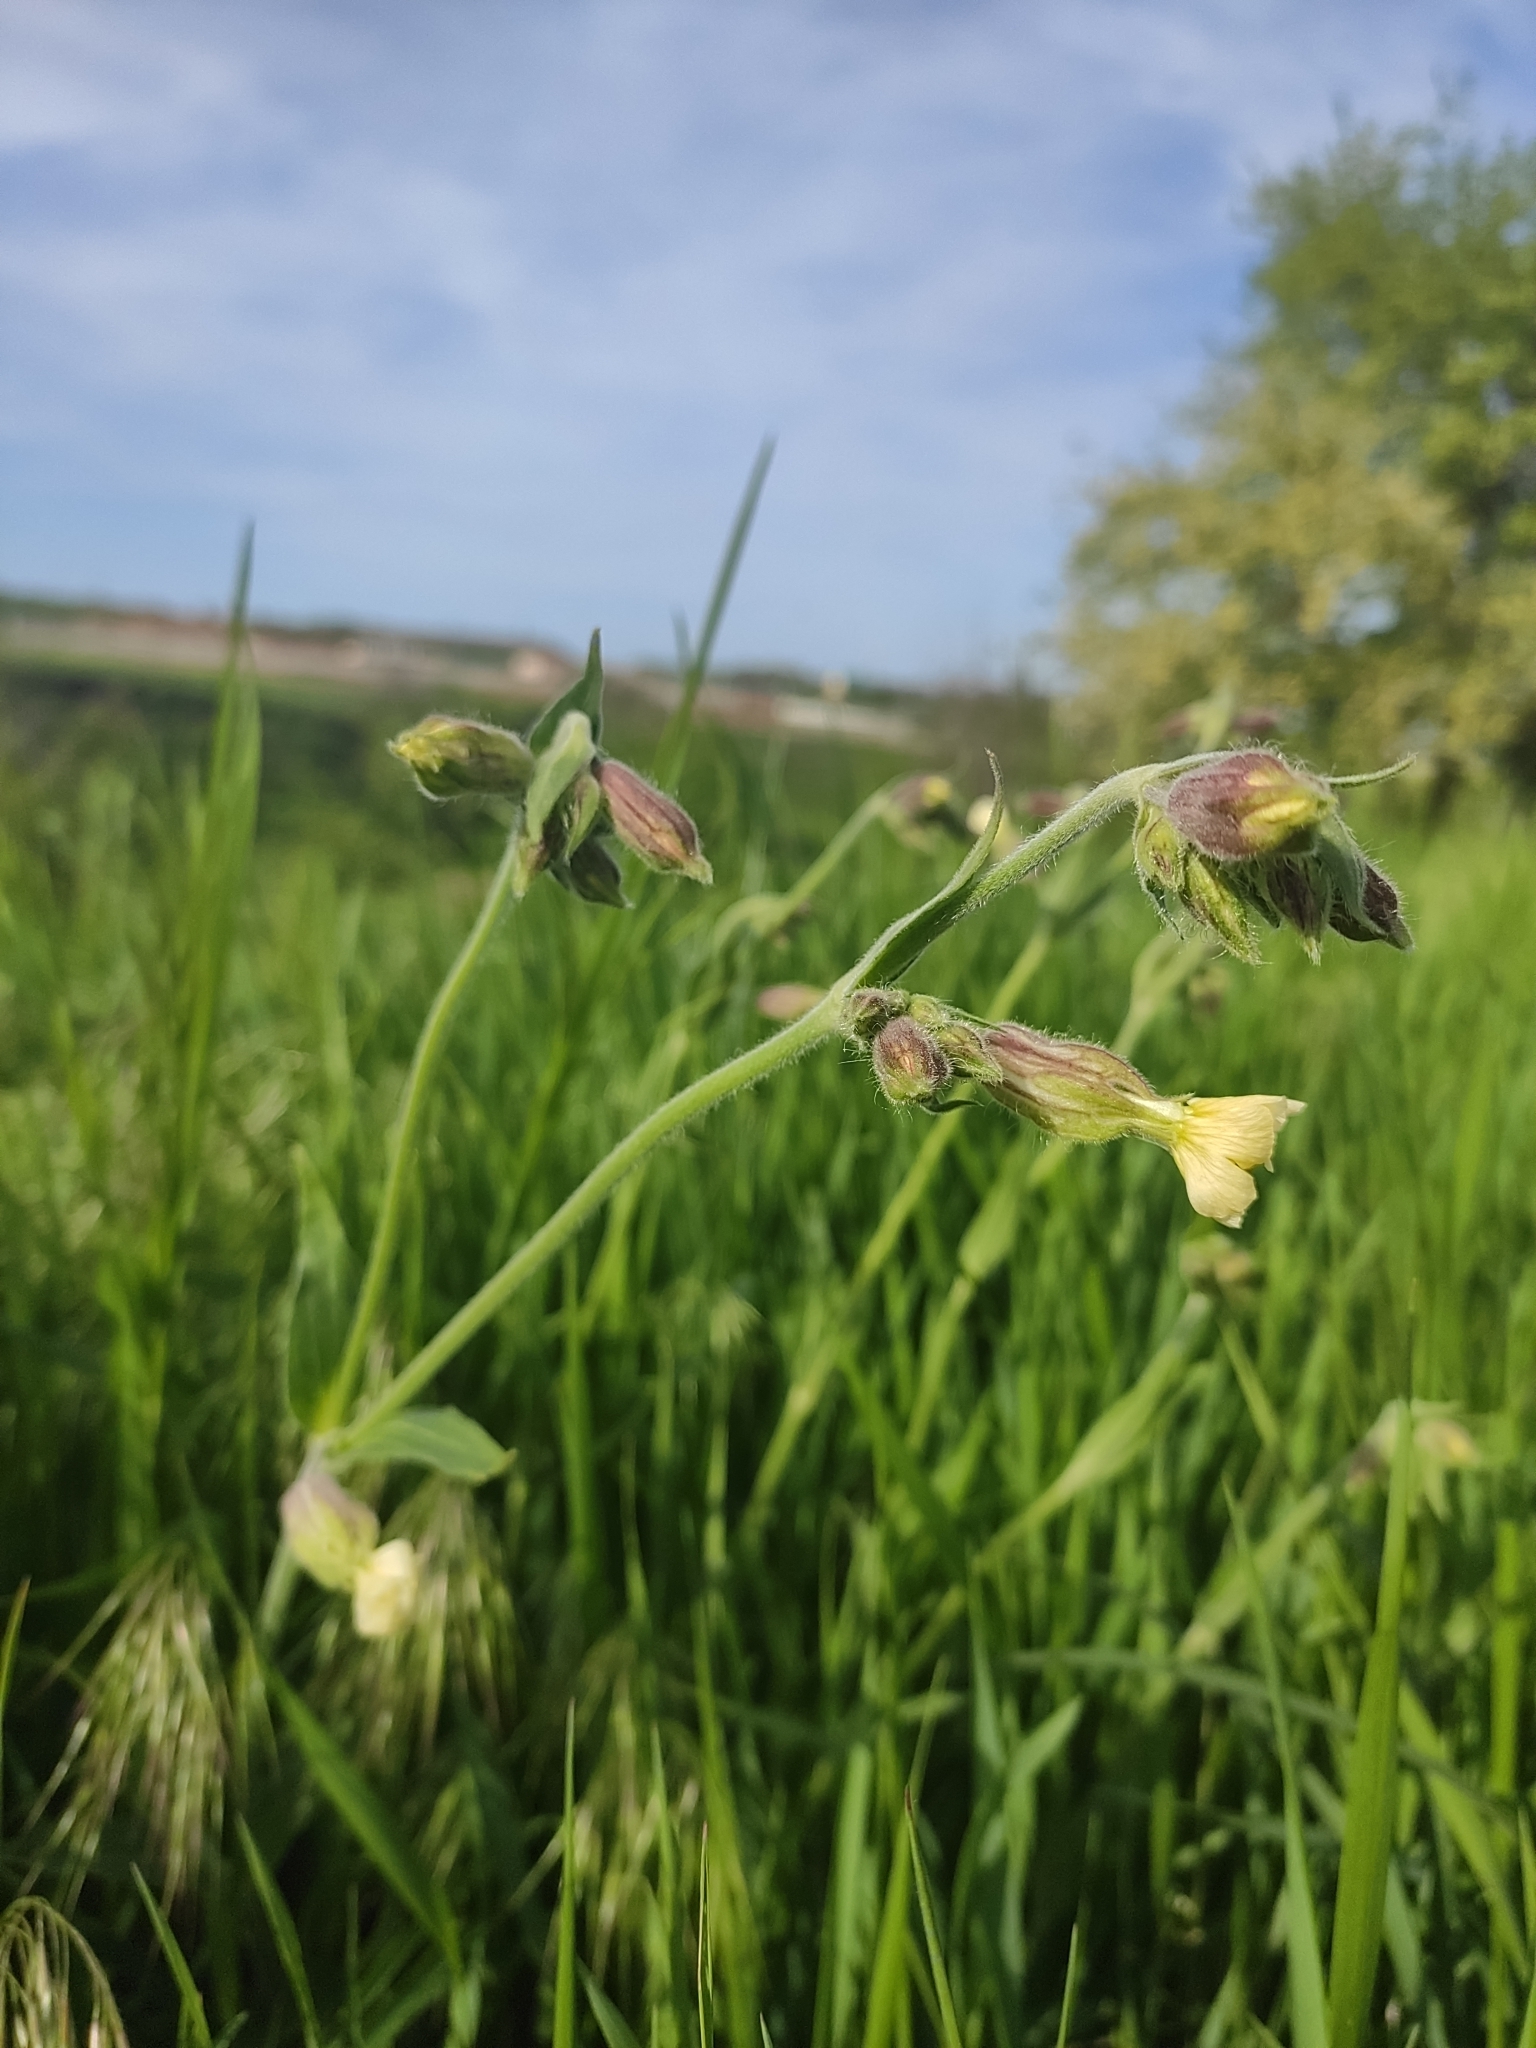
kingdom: Plantae
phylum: Tracheophyta
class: Magnoliopsida
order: Caryophyllales
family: Caryophyllaceae
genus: Silene
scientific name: Silene latifolia
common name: White campion
